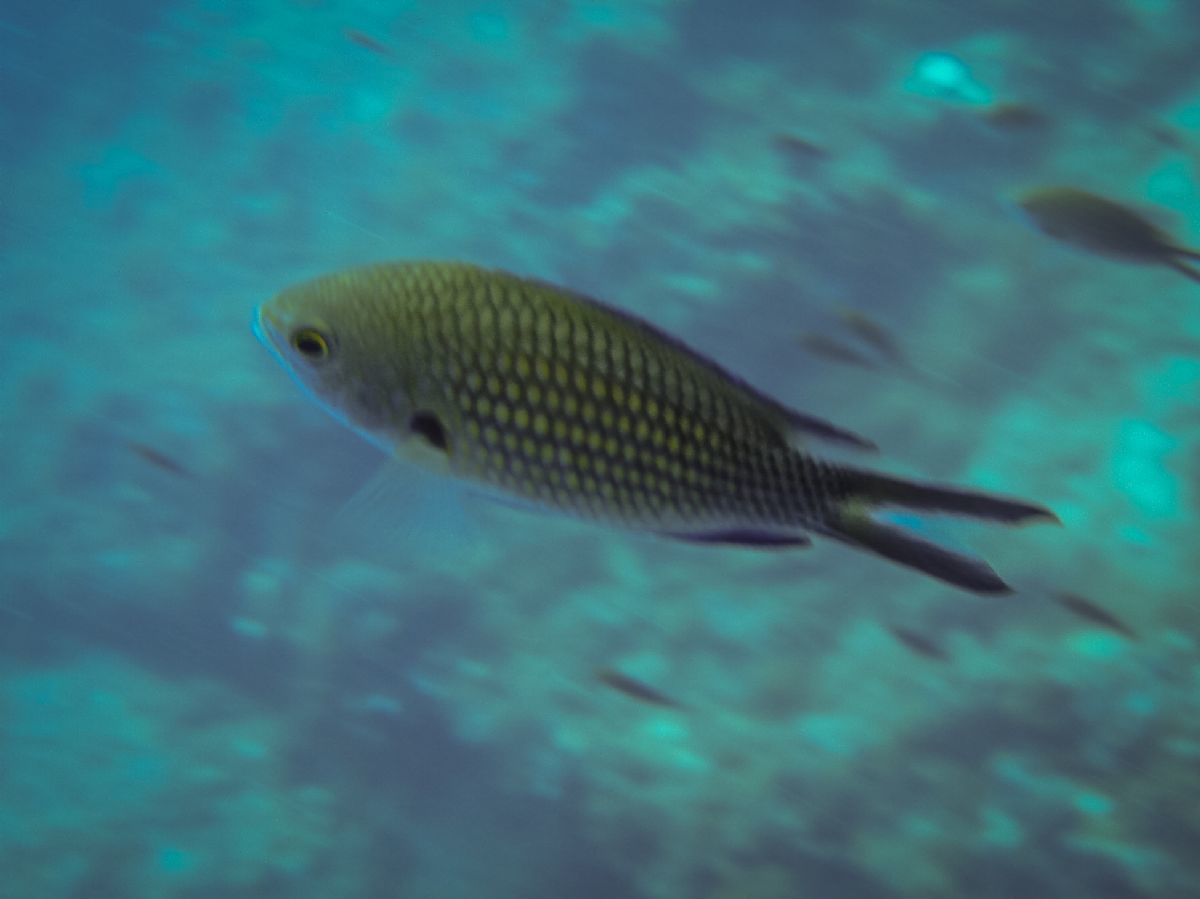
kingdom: Animalia
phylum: Chordata
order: Perciformes
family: Pomacentridae
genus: Chromis
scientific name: Chromis chromis
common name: Damselfish
